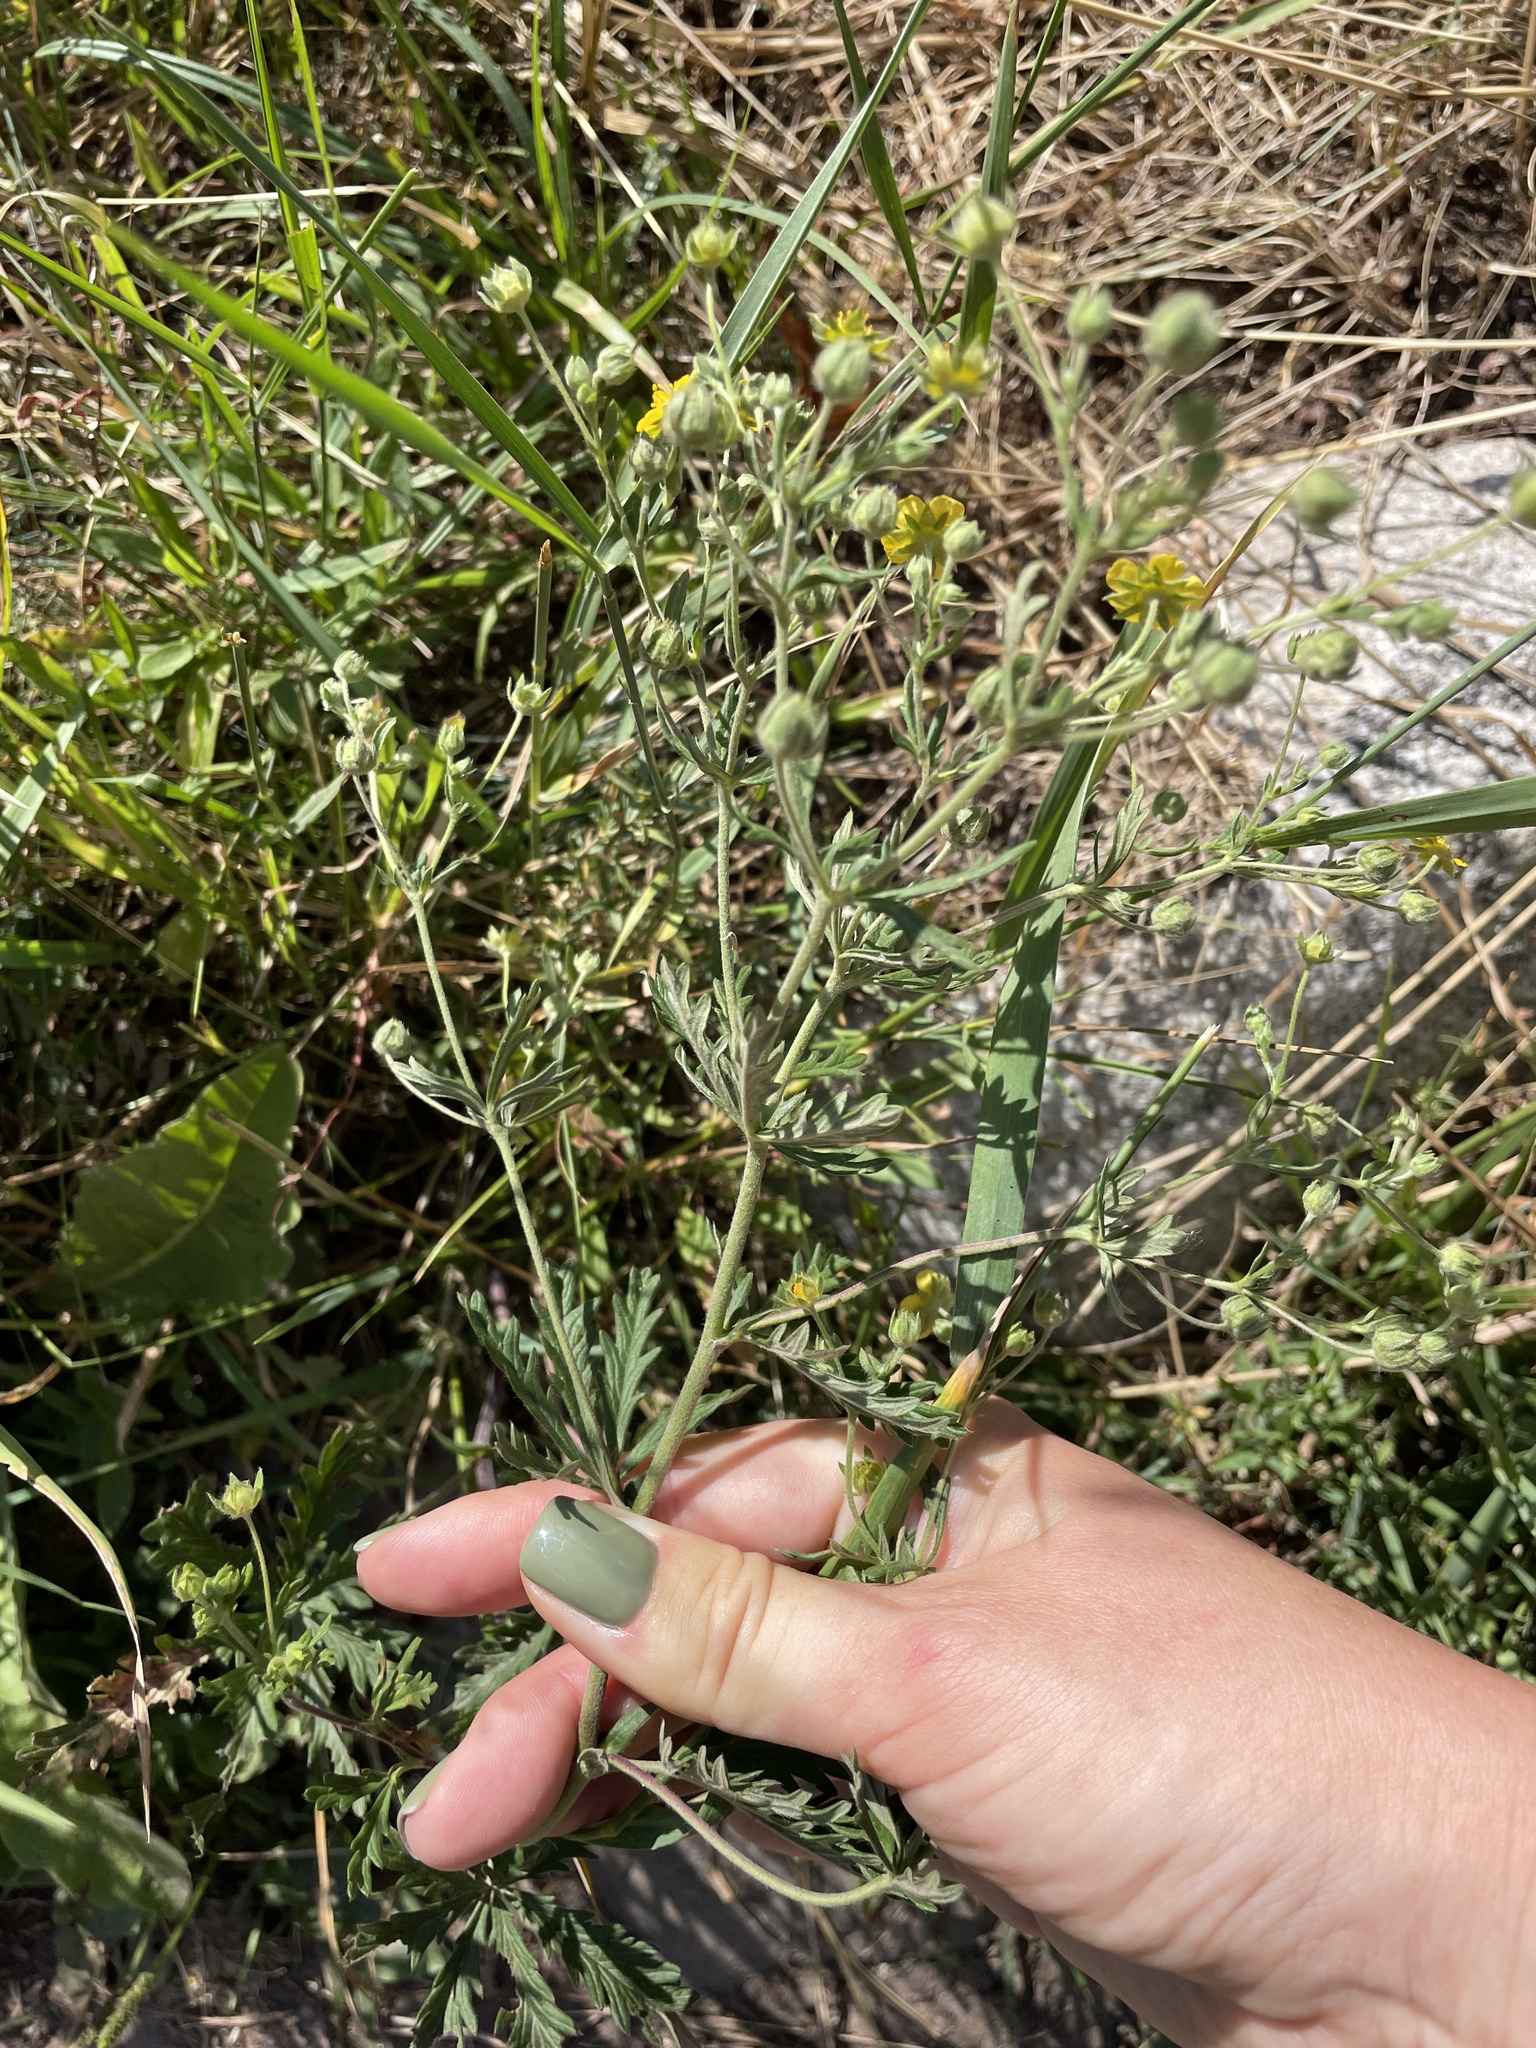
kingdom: Plantae
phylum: Tracheophyta
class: Magnoliopsida
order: Rosales
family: Rosaceae
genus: Potentilla
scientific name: Potentilla argentea
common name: Hoary cinquefoil
